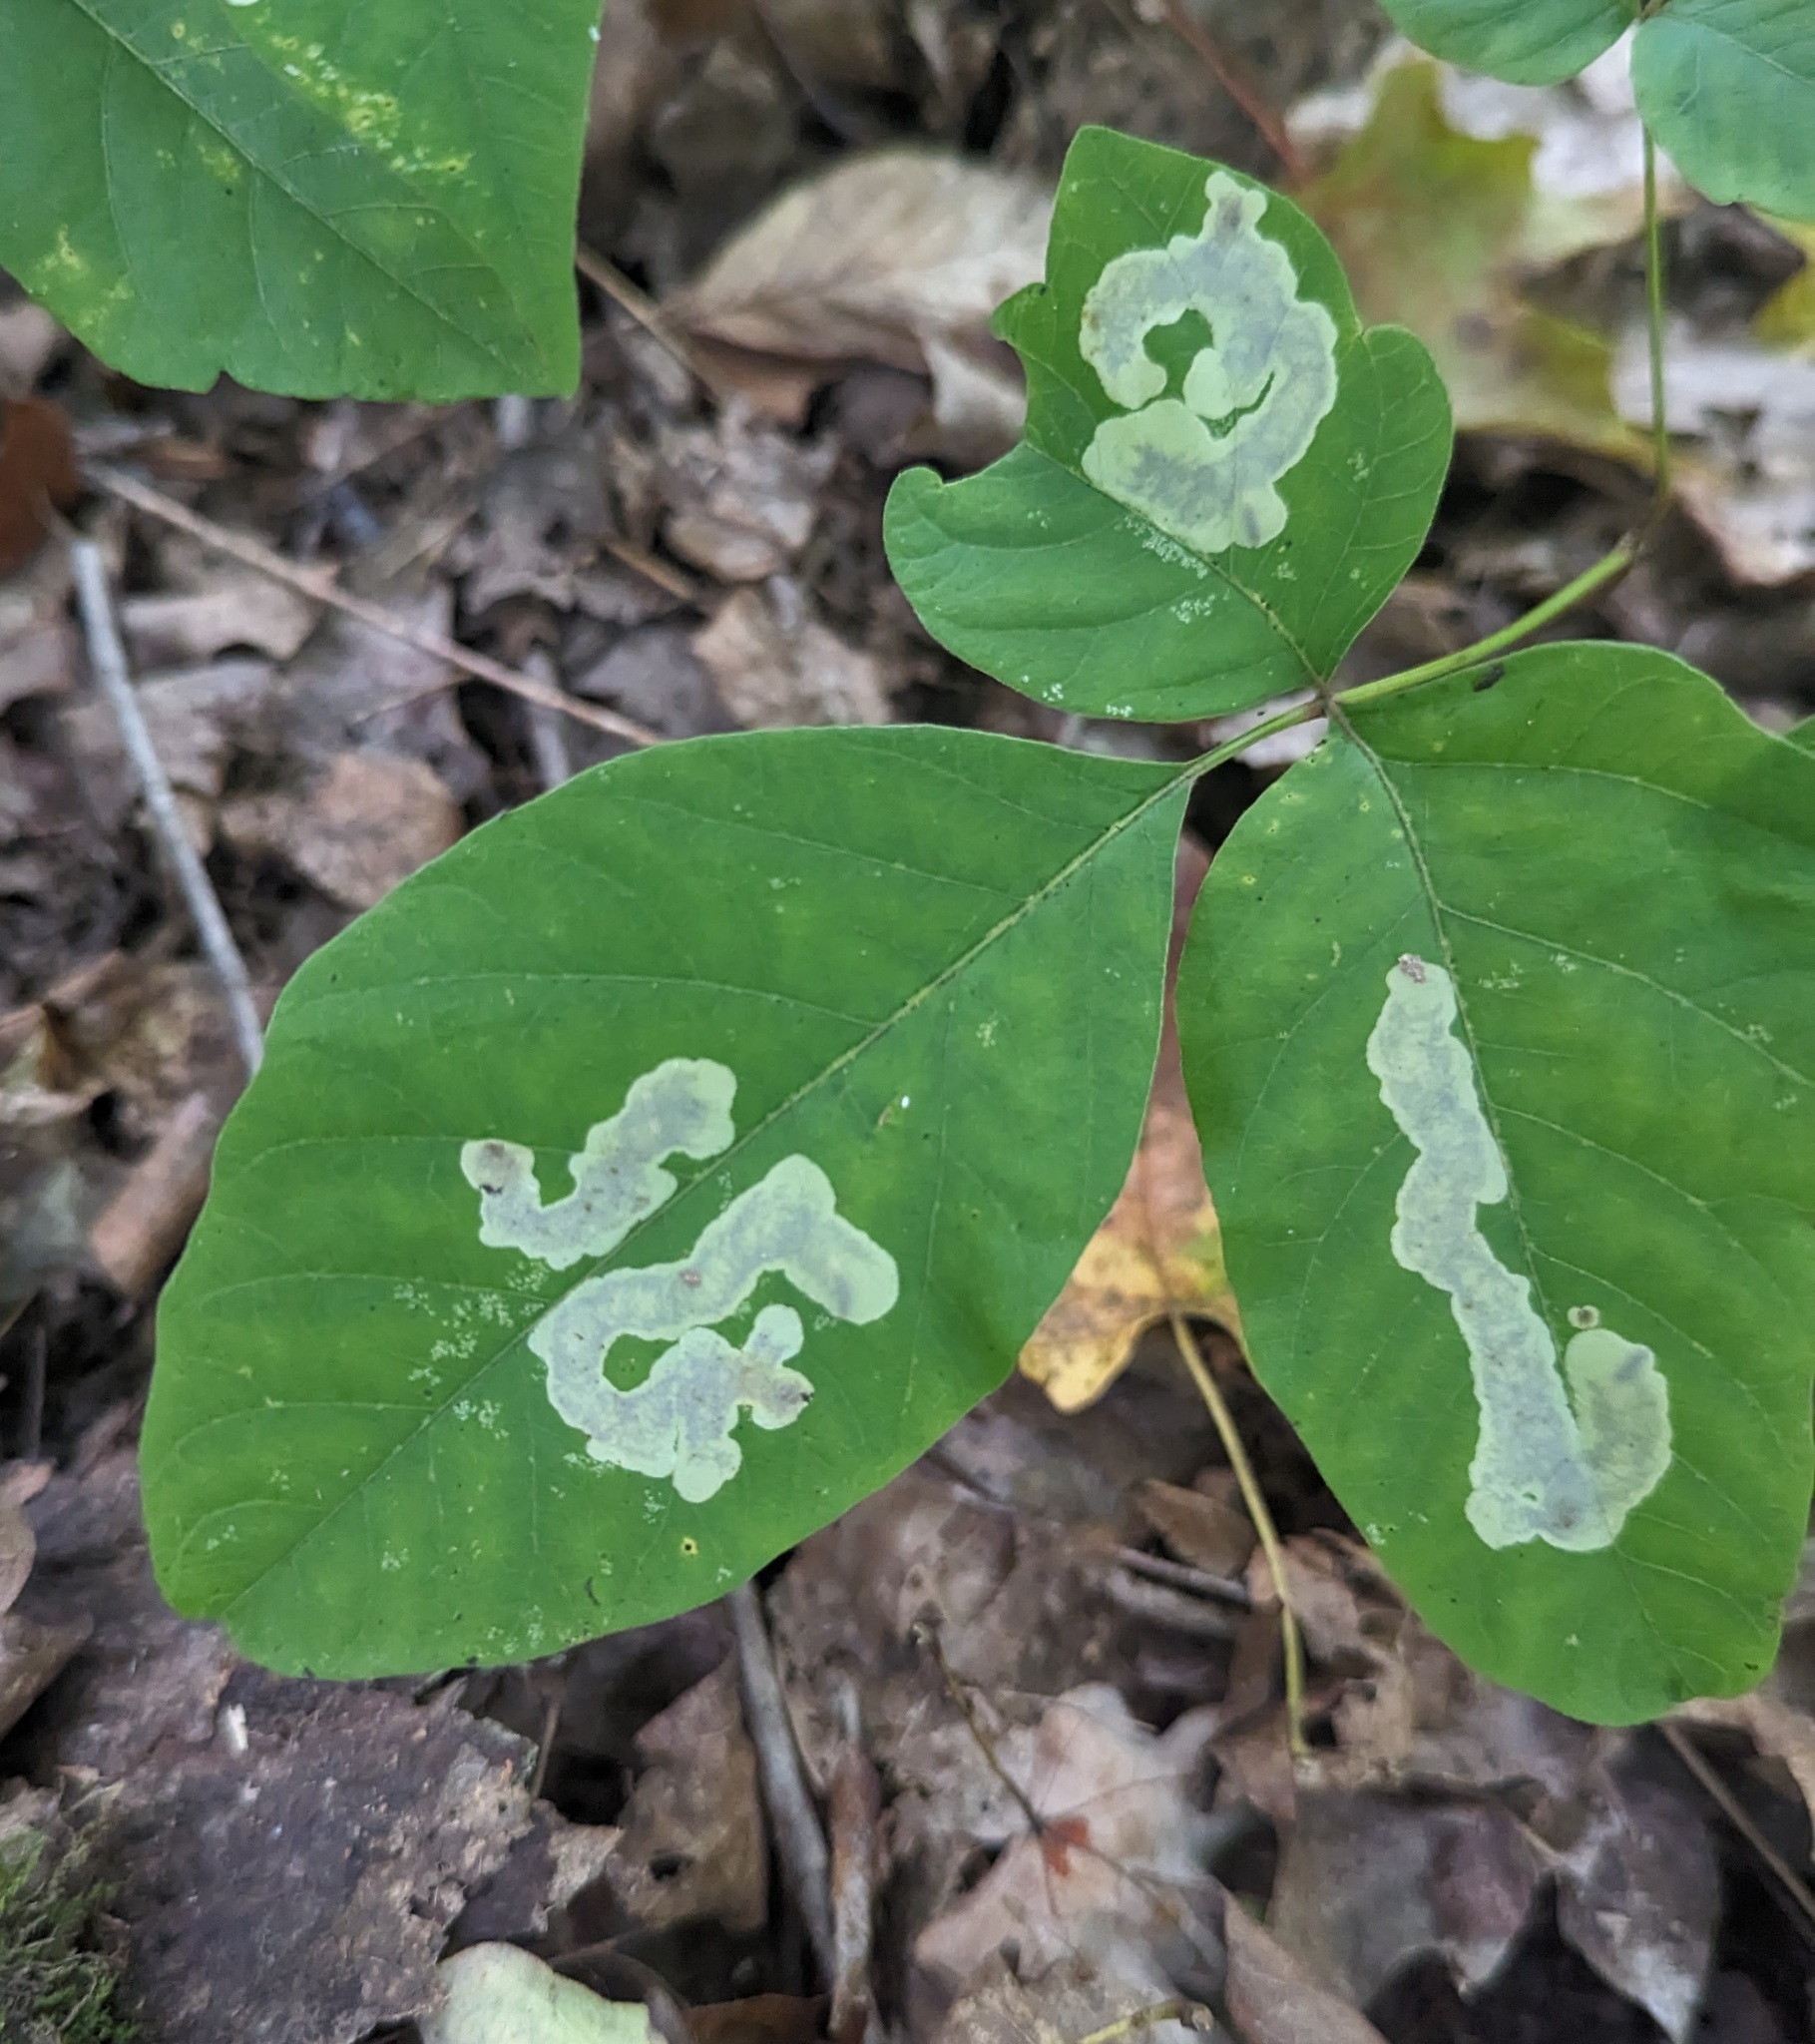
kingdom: Animalia
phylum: Arthropoda
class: Insecta
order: Lepidoptera
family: Gracillariidae
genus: Cameraria
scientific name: Cameraria guttifinitella
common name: Poison ivy leaf-miner moth
